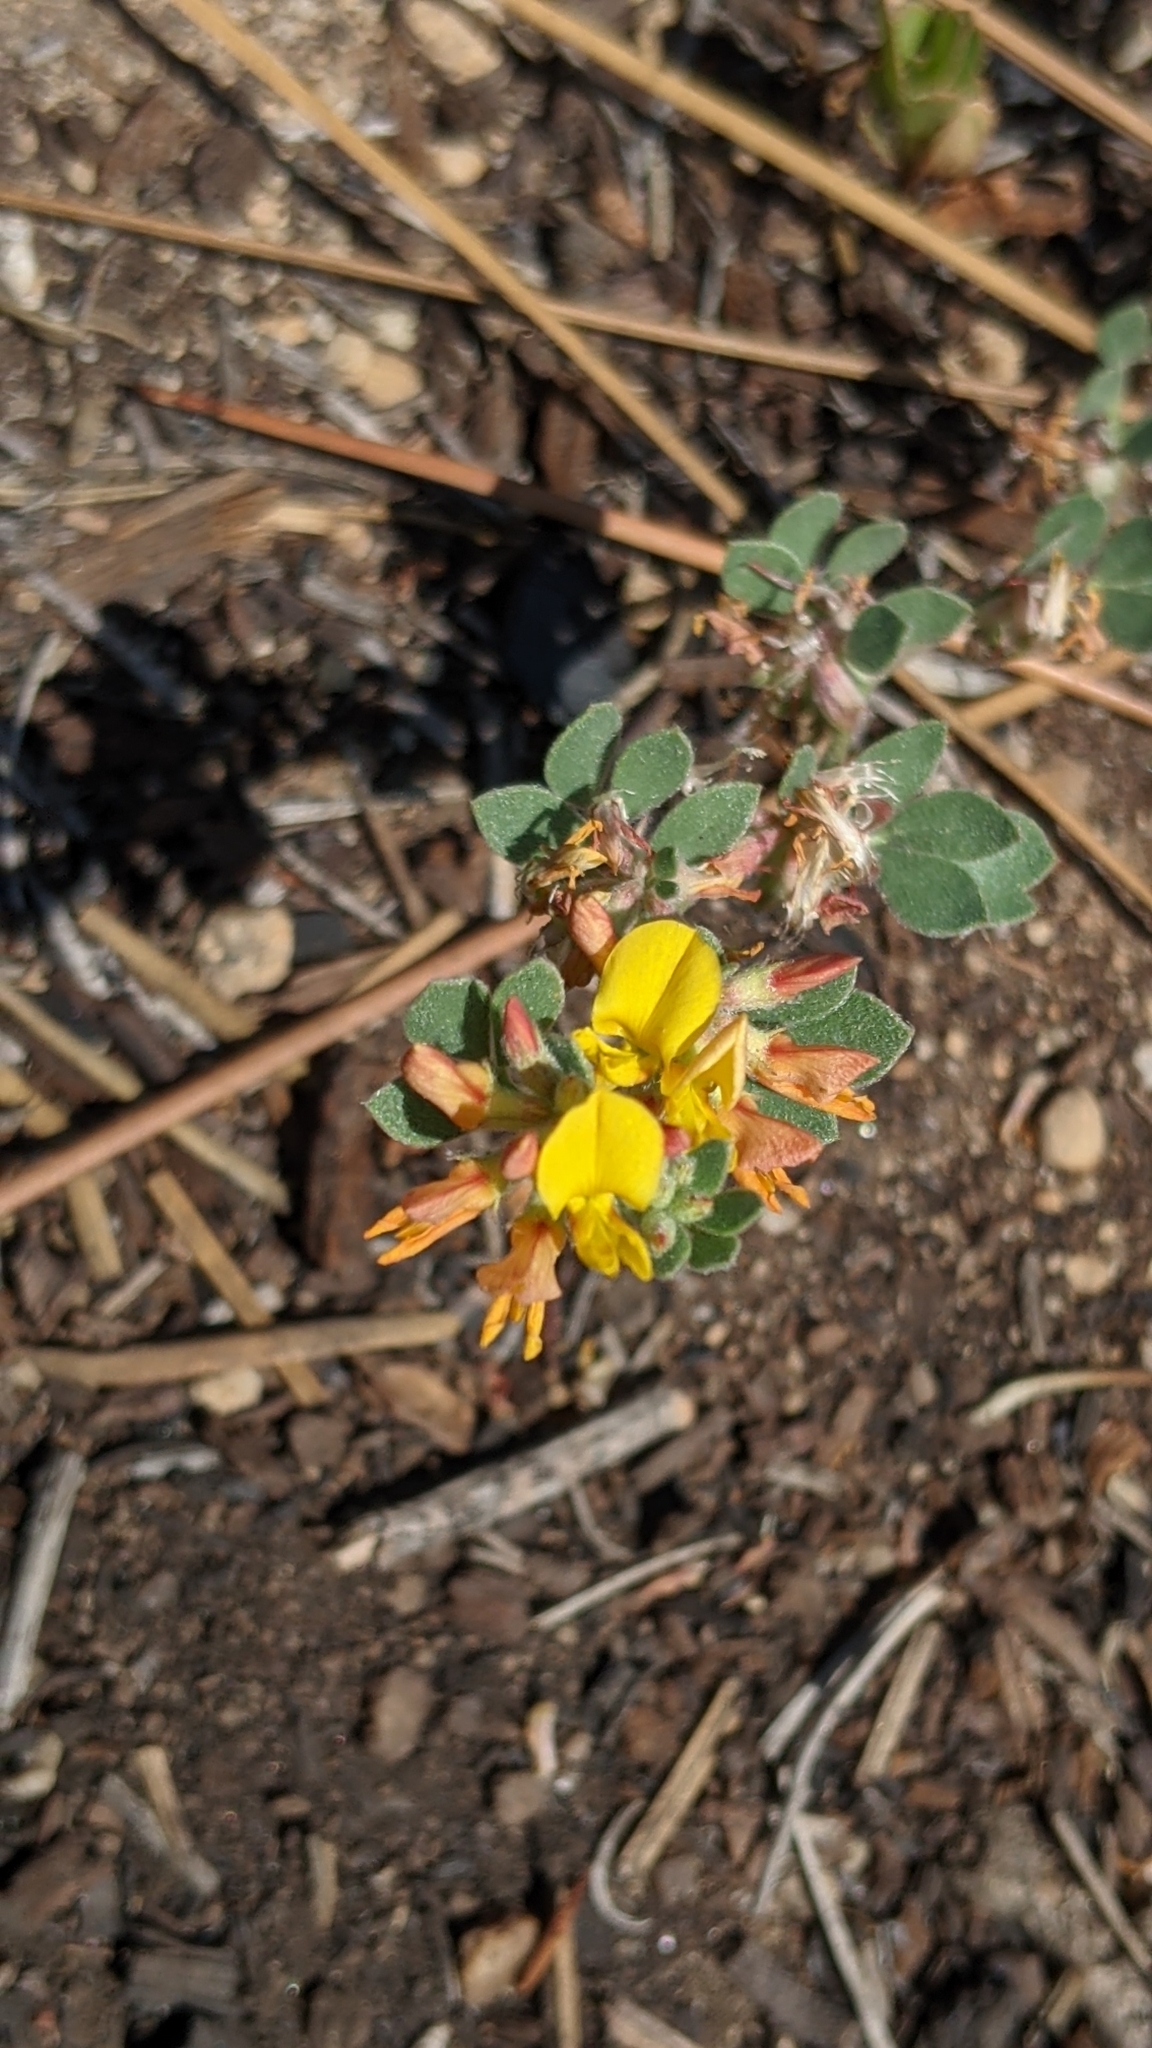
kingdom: Plantae
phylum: Tracheophyta
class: Magnoliopsida
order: Fabales
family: Fabaceae
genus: Acmispon
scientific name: Acmispon decumbens
